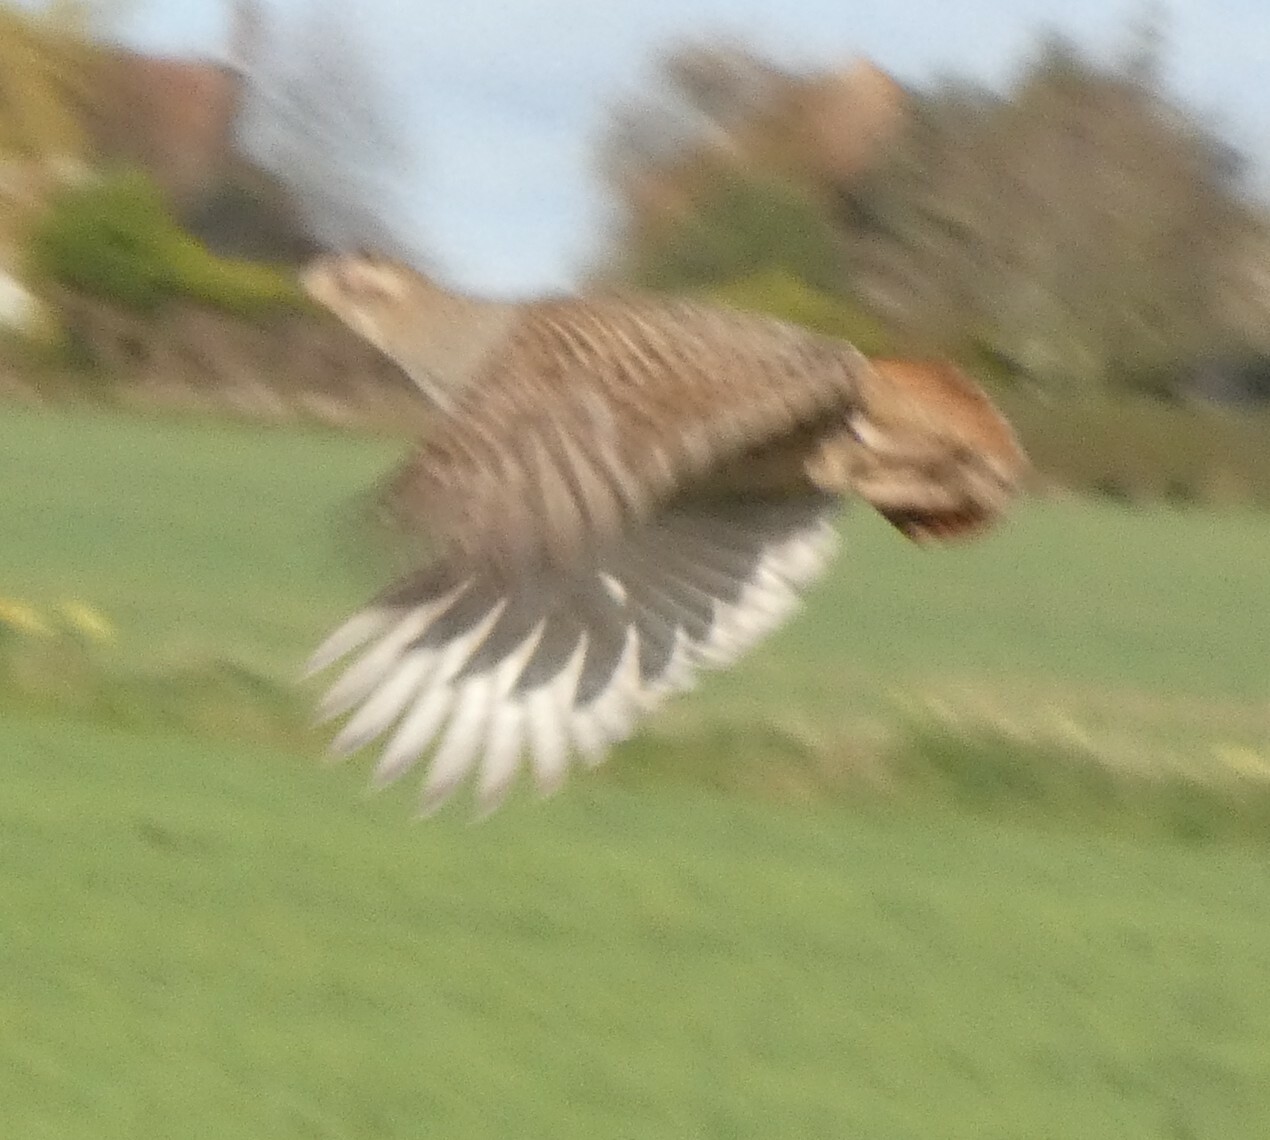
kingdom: Animalia
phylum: Chordata
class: Aves
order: Galliformes
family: Phasianidae
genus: Perdix
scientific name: Perdix perdix
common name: Grey partridge
